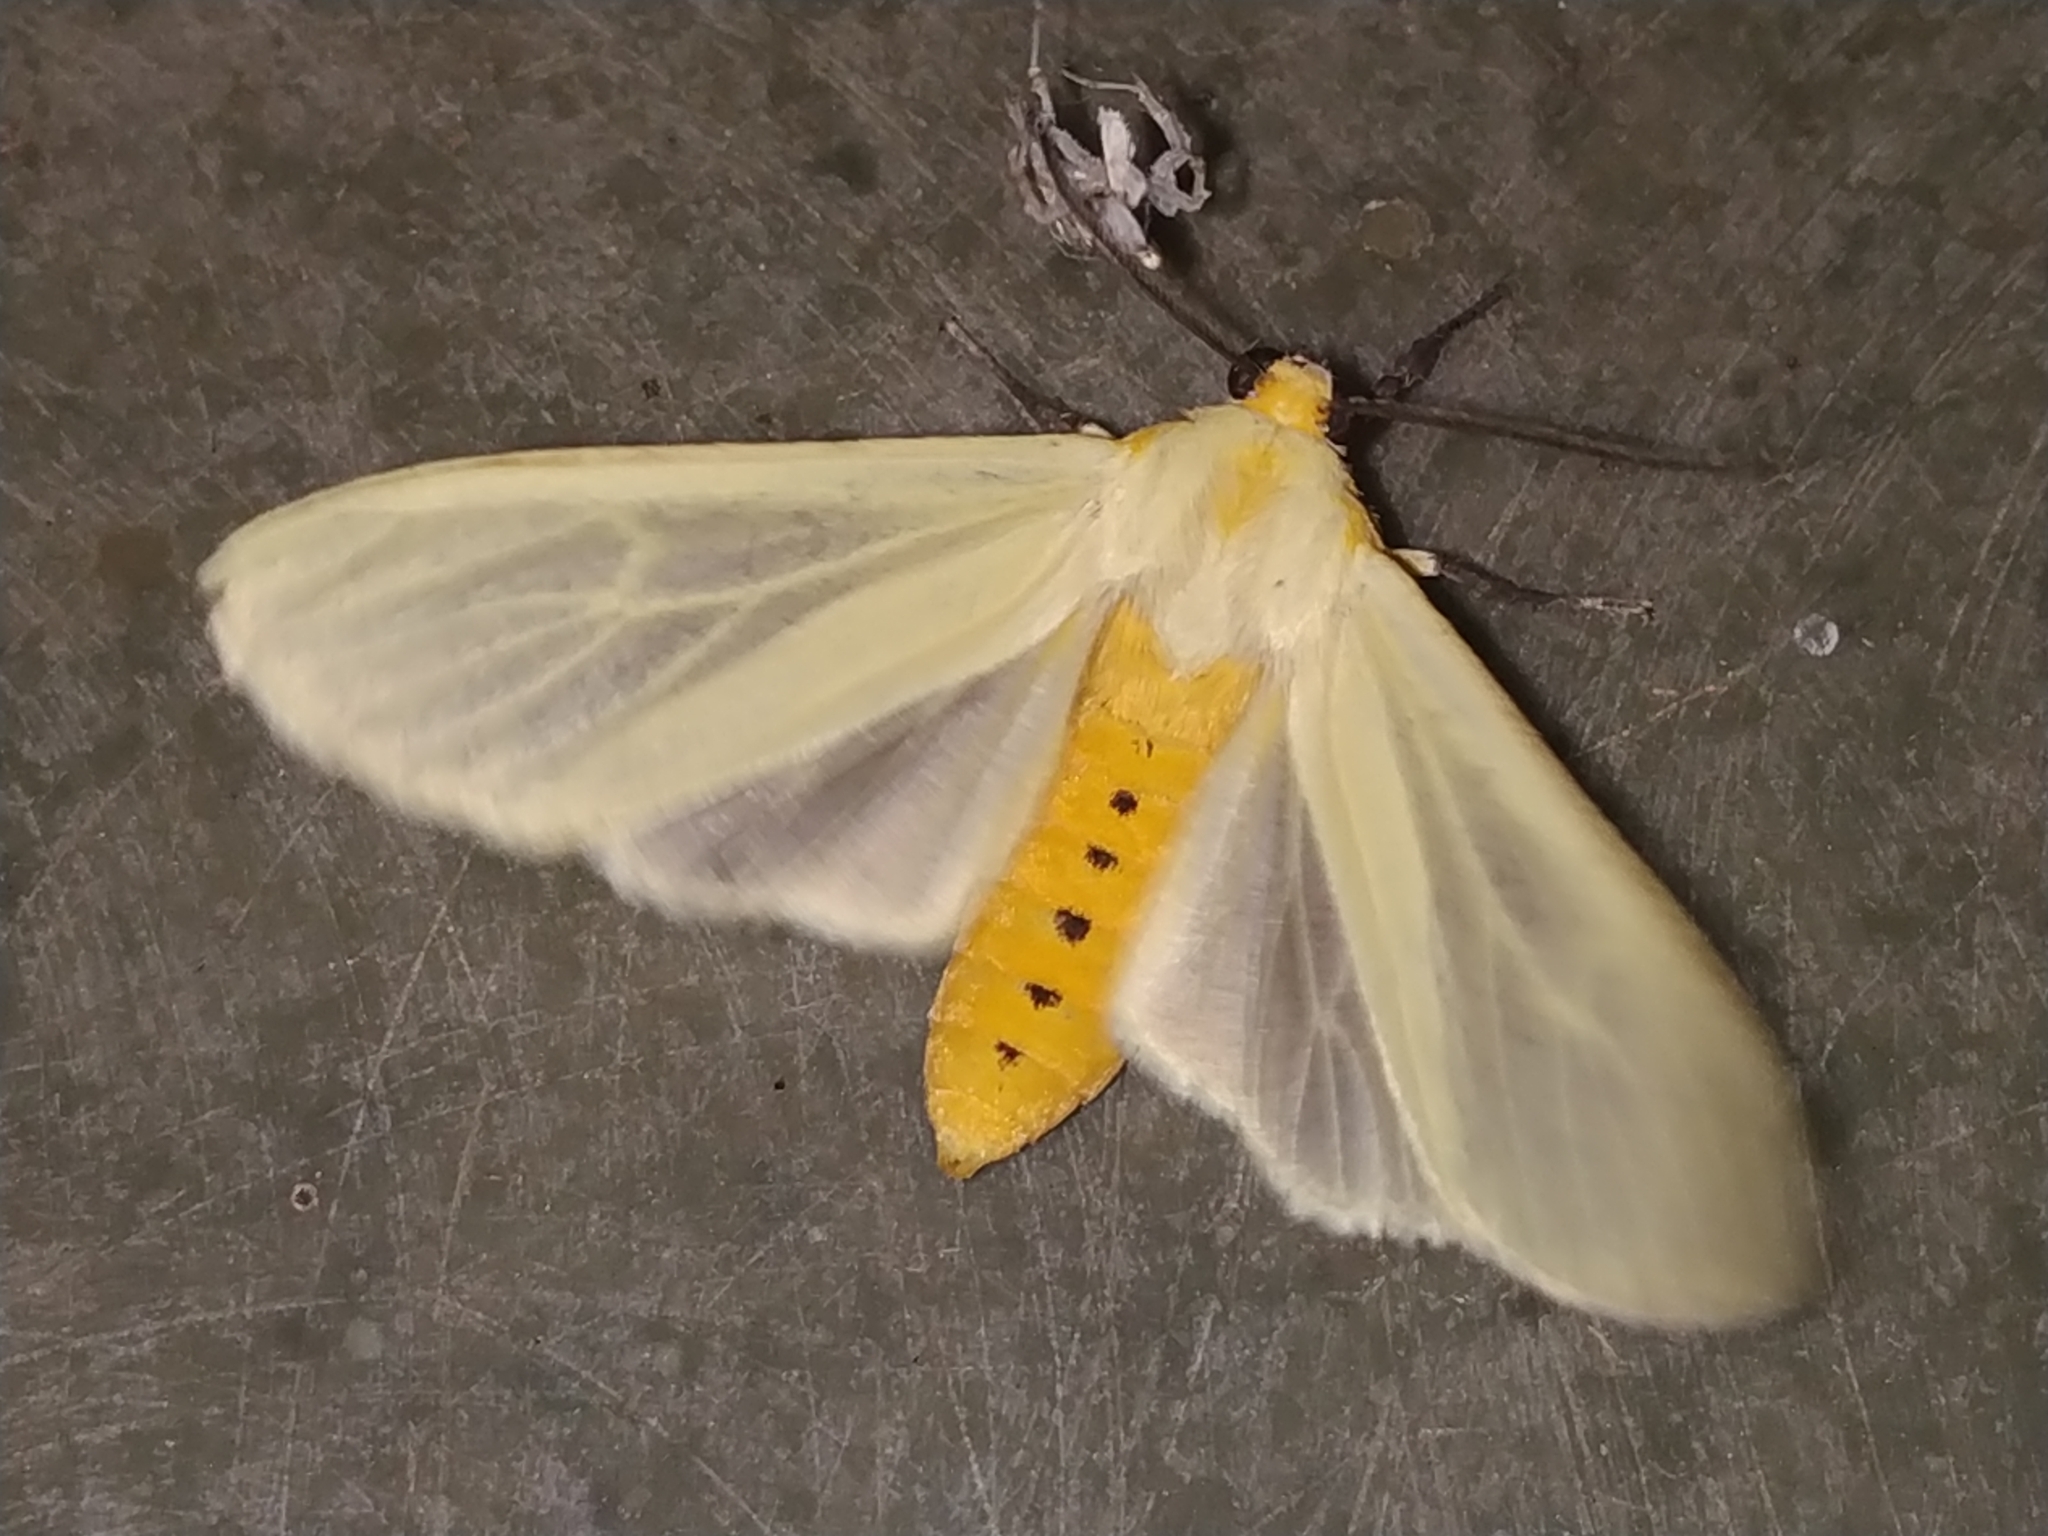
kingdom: Animalia
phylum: Arthropoda
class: Insecta
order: Lepidoptera
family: Erebidae
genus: Pareuchaetes
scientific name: Pareuchaetes pseudoinsulata
